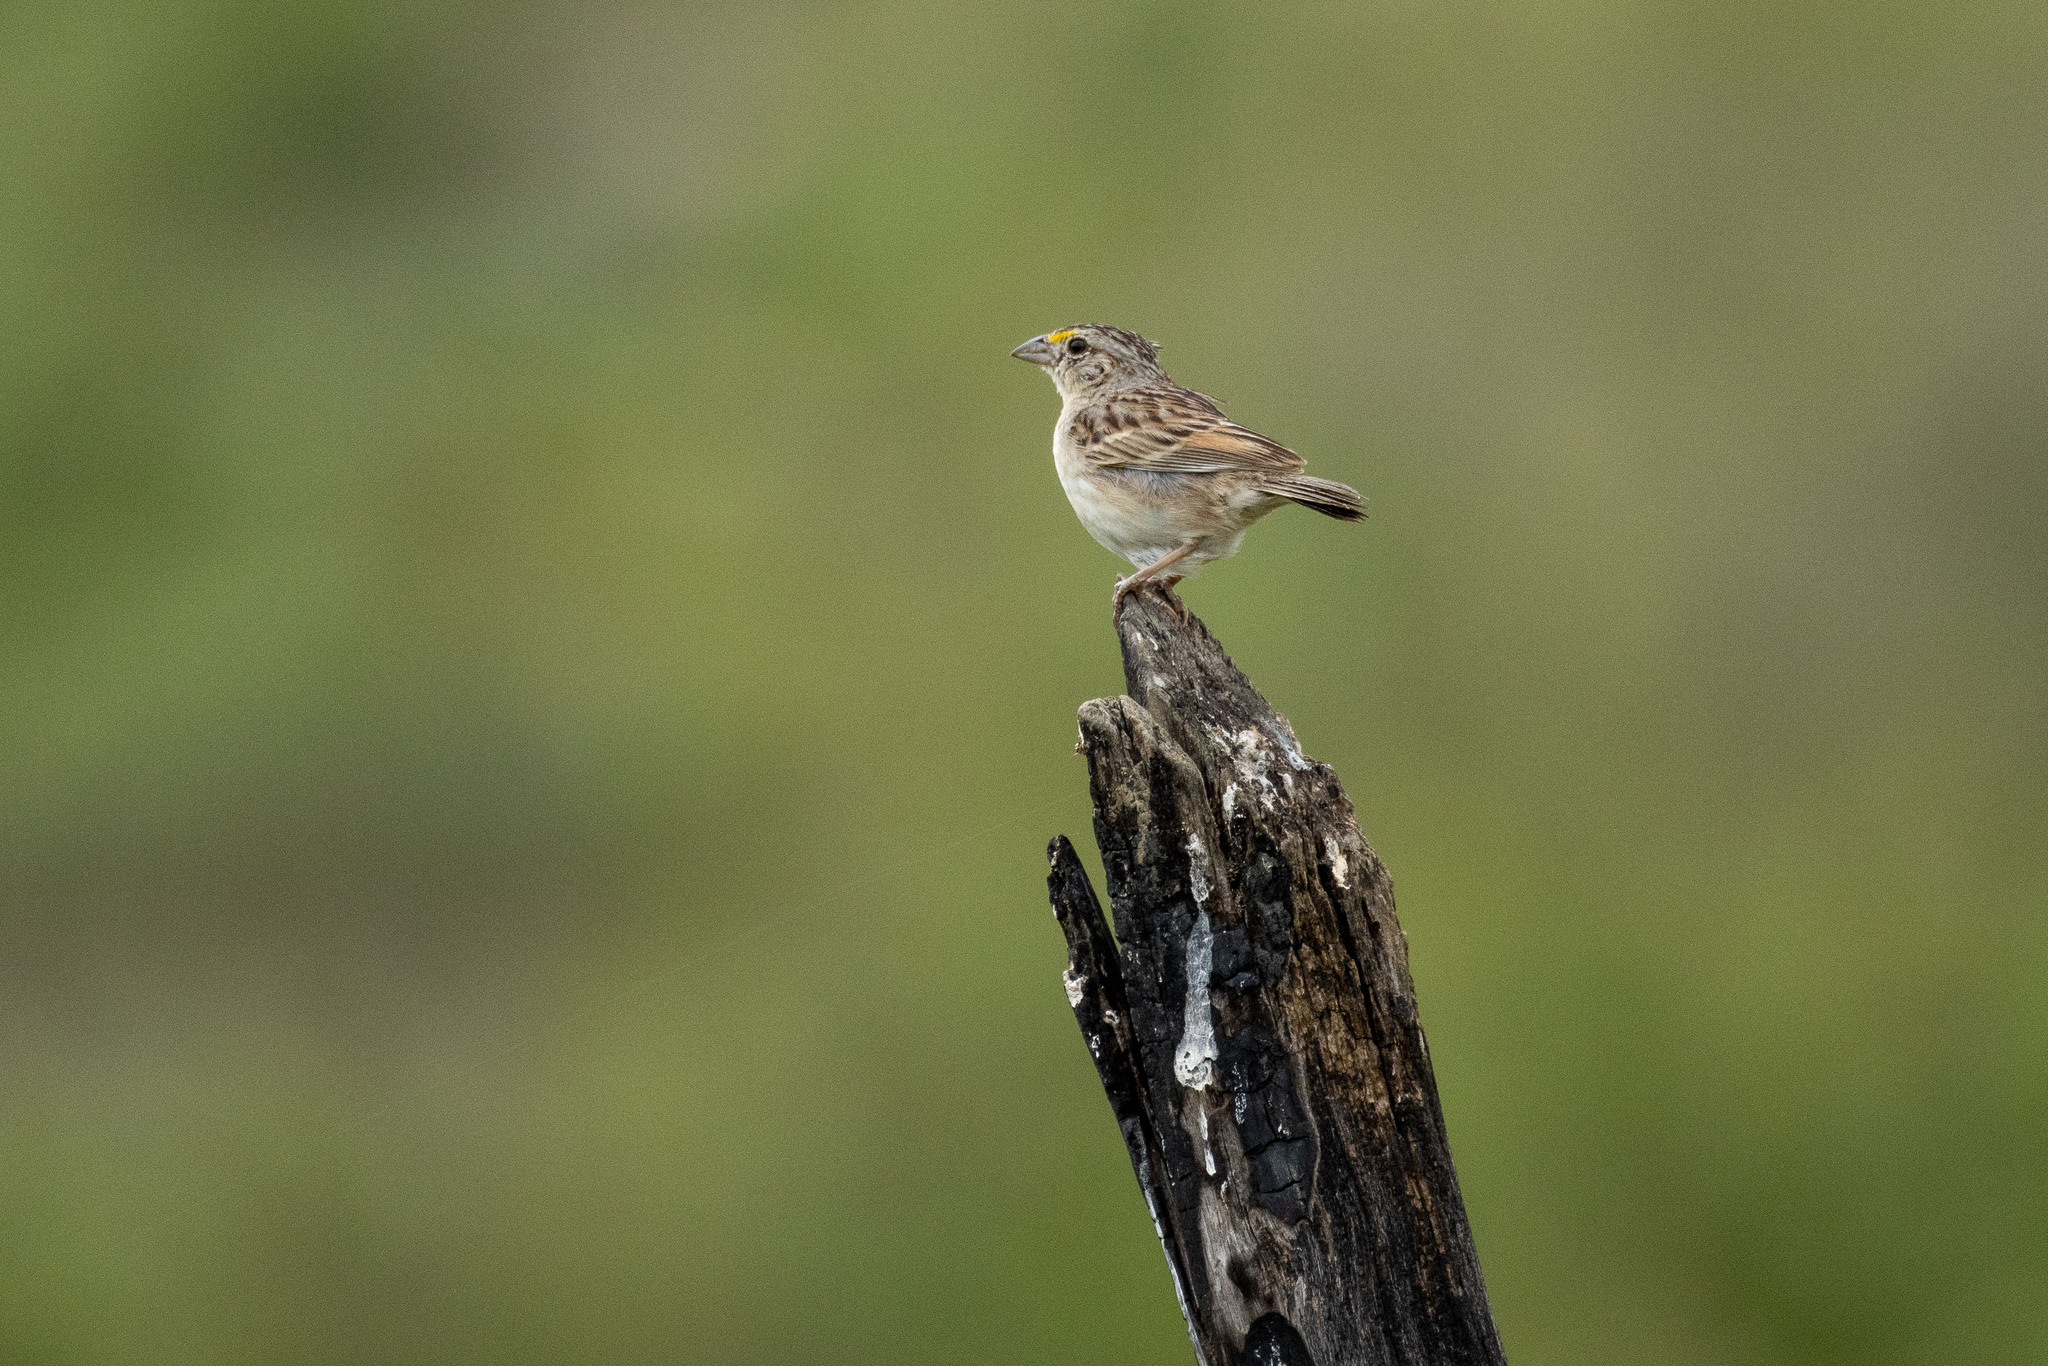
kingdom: Animalia
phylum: Chordata
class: Aves
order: Passeriformes
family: Passerellidae
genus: Ammodramus
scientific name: Ammodramus humeralis
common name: Grassland sparrow
